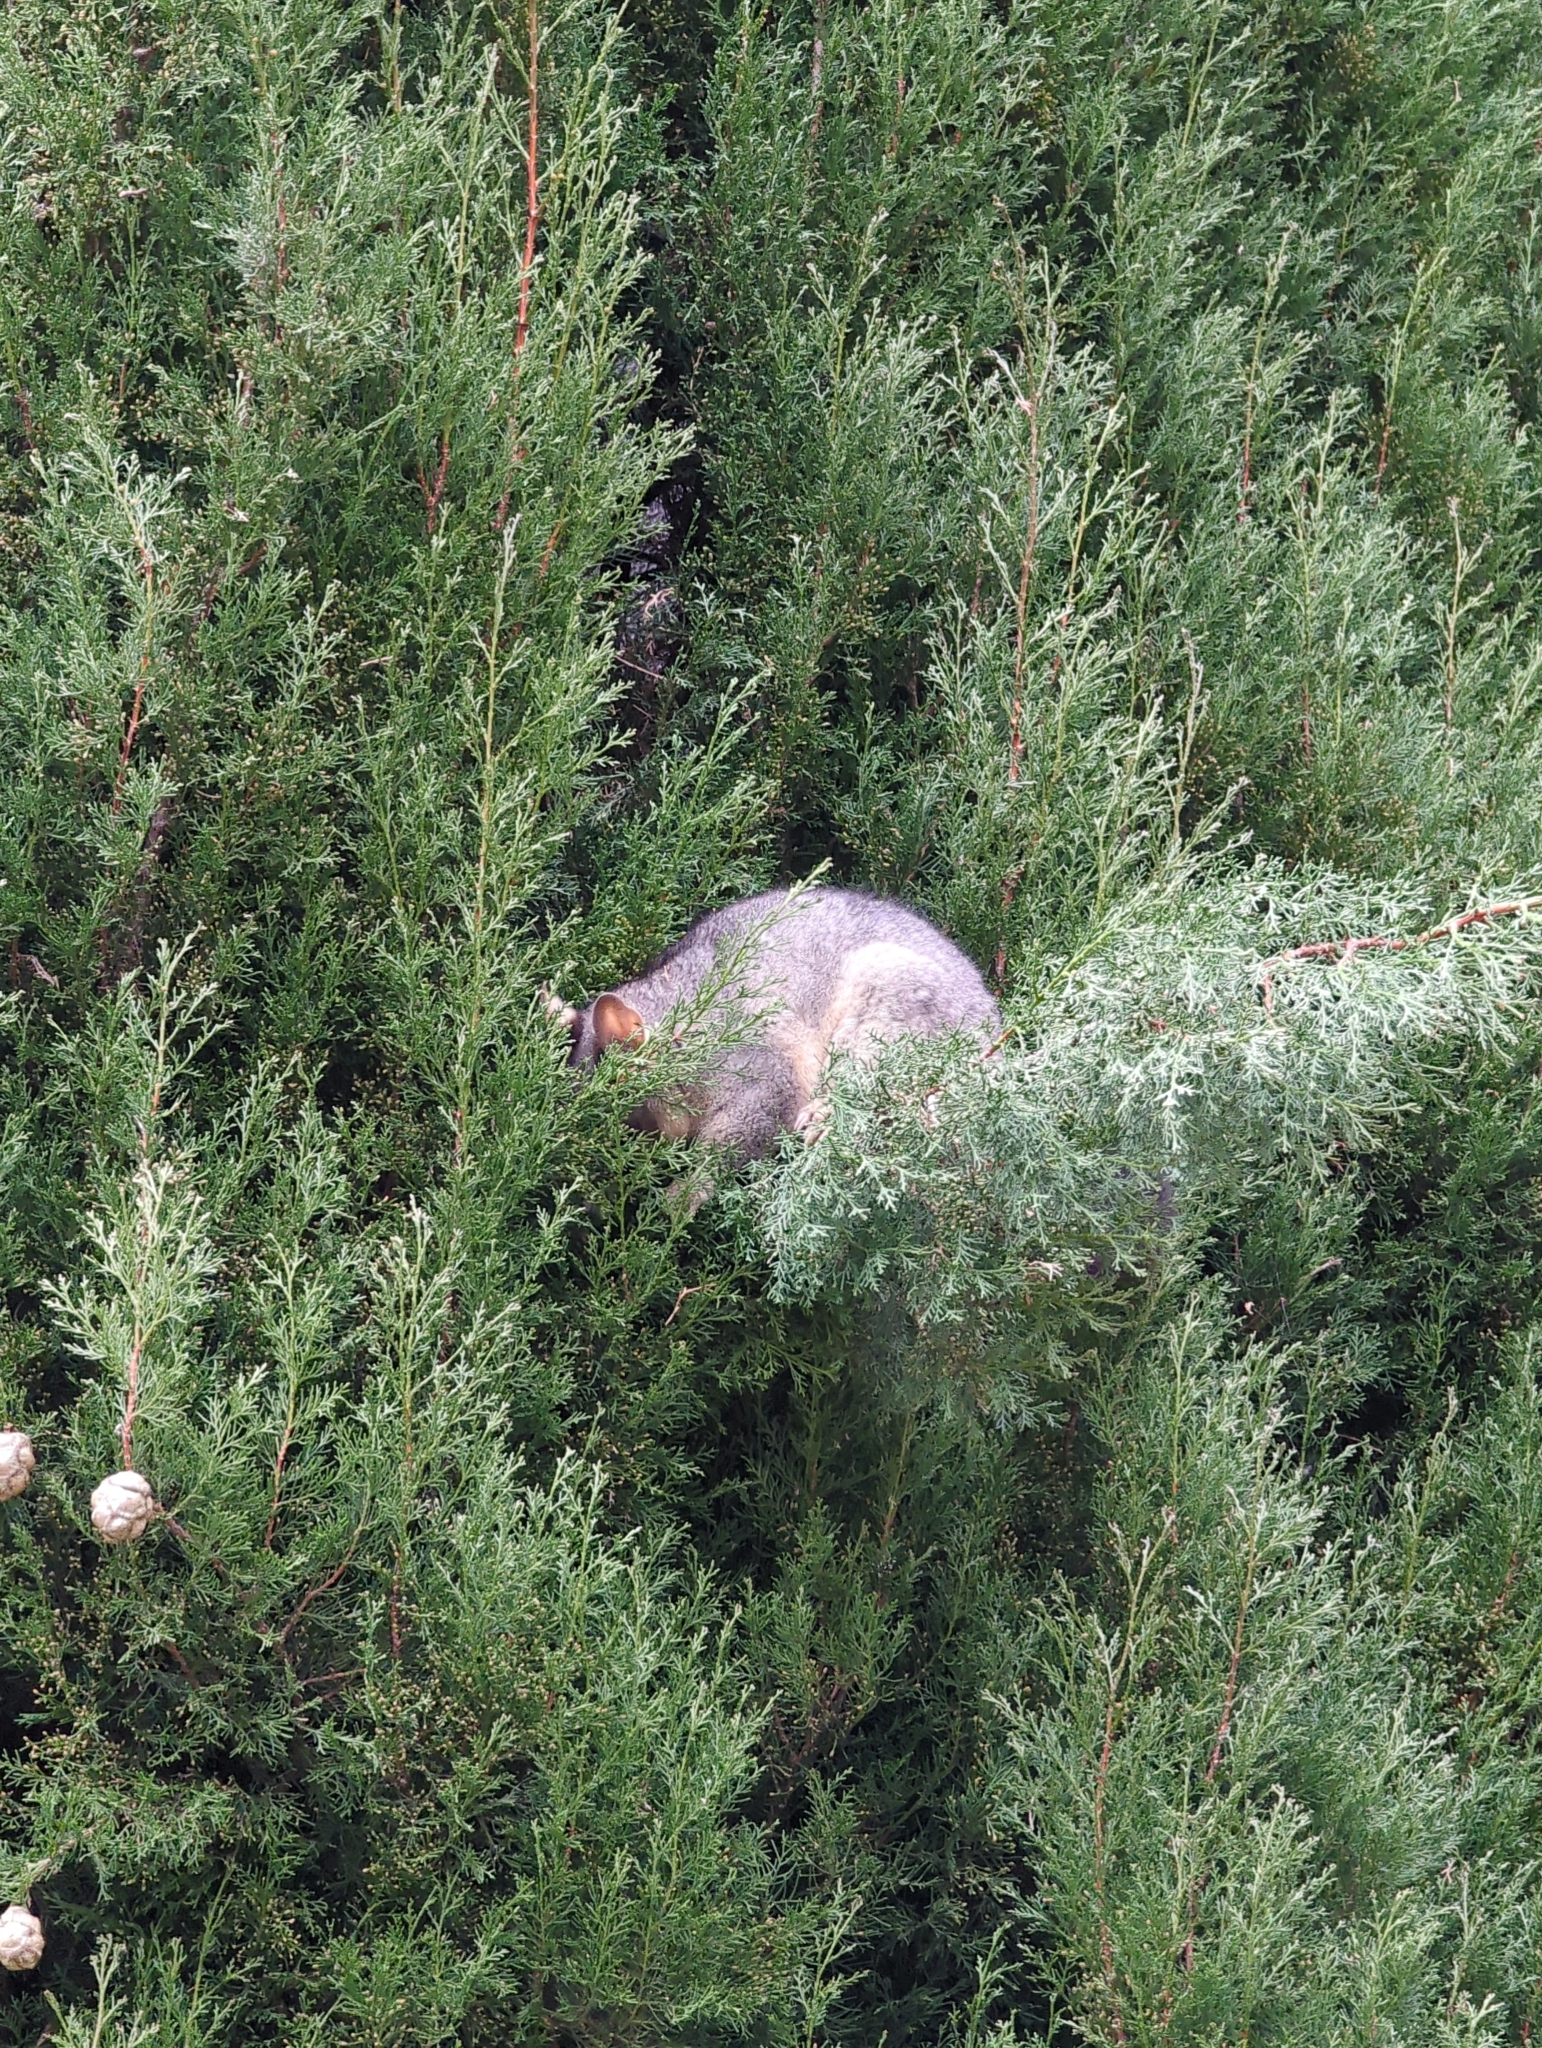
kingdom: Animalia
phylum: Chordata
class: Mammalia
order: Diprotodontia
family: Phalangeridae
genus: Trichosurus
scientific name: Trichosurus vulpecula
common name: Common brushtail
